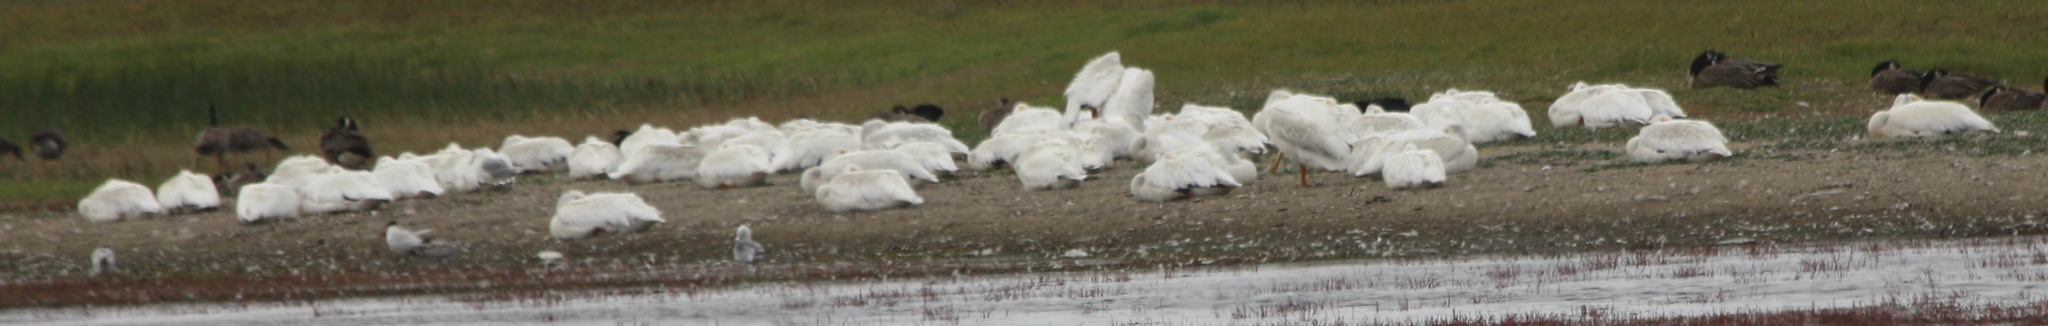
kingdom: Animalia
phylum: Chordata
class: Aves
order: Pelecaniformes
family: Pelecanidae
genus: Pelecanus
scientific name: Pelecanus erythrorhynchos
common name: American white pelican
